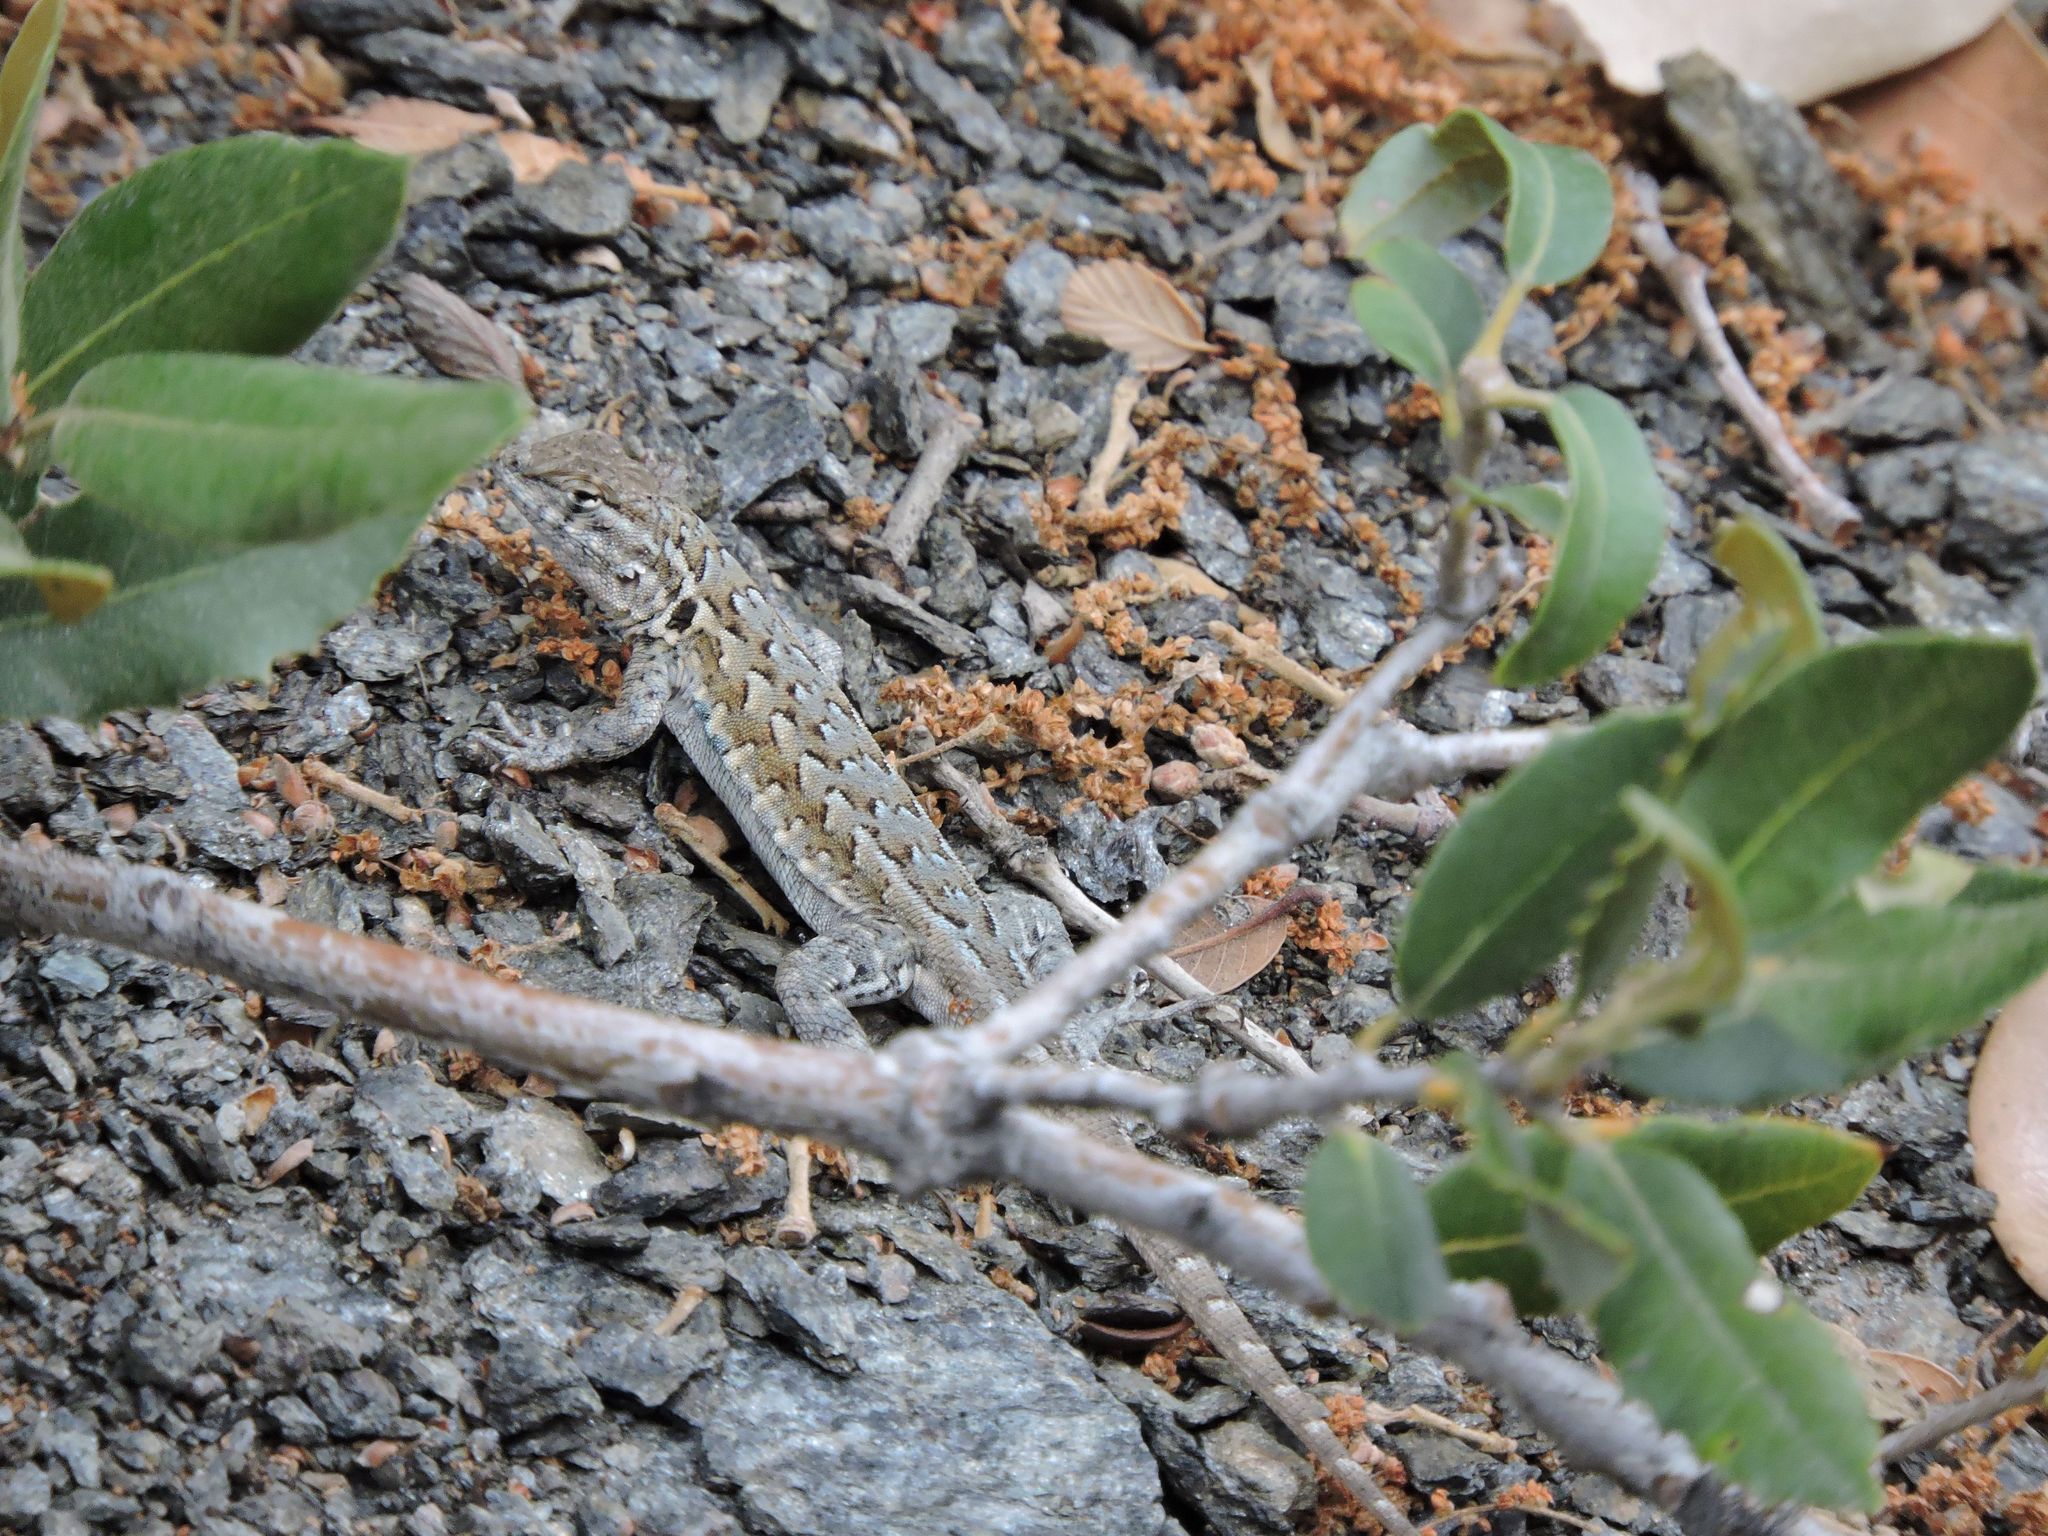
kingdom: Animalia
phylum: Chordata
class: Squamata
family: Phrynosomatidae
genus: Uta
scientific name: Uta stansburiana
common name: Side-blotched lizard
